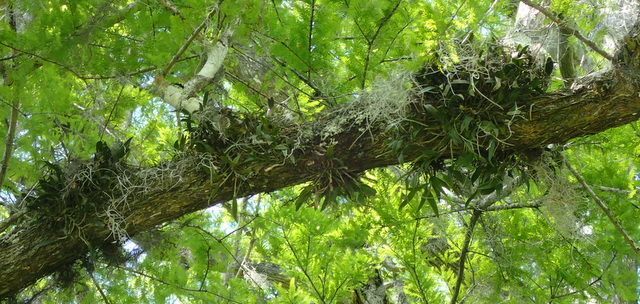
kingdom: Plantae
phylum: Tracheophyta
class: Liliopsida
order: Asparagales
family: Orchidaceae
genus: Epidendrum
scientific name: Epidendrum conopseum
